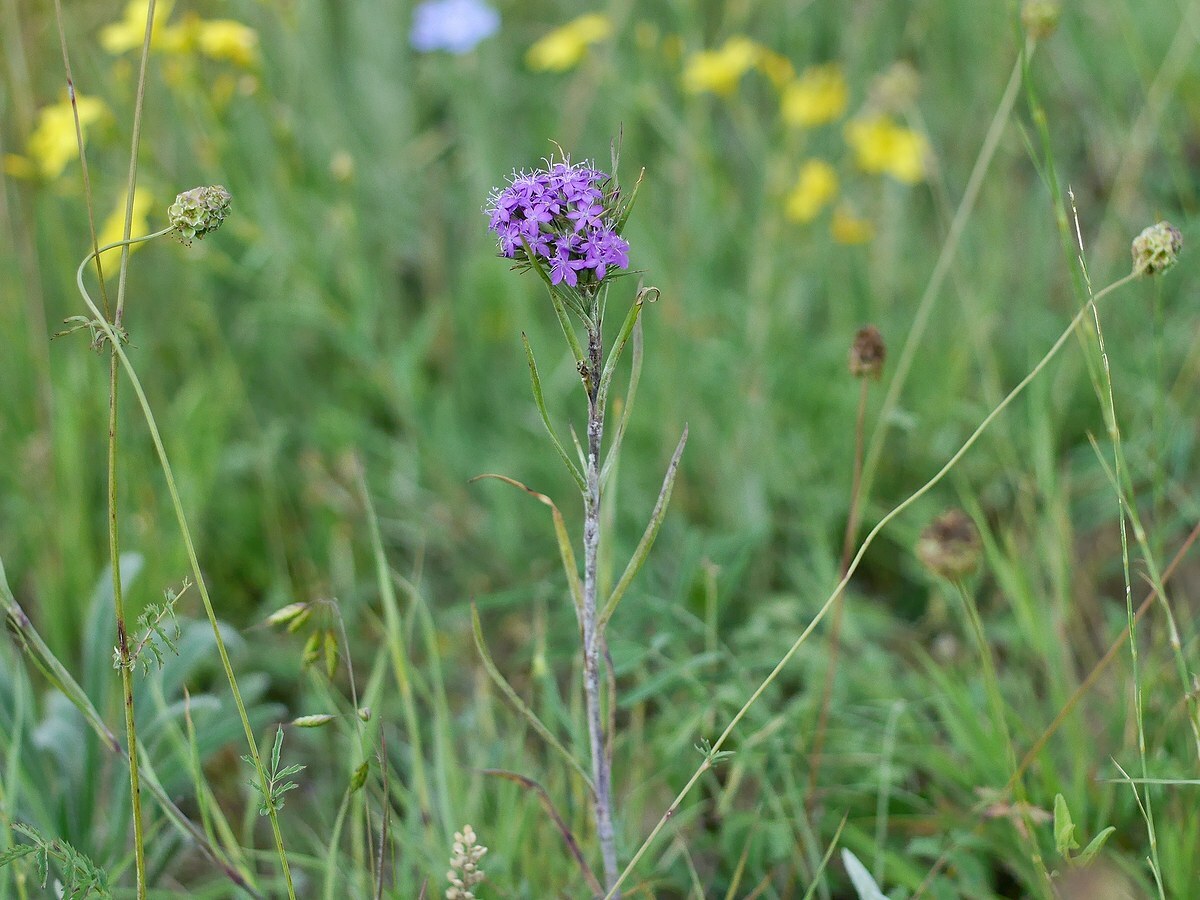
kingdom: Plantae
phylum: Tracheophyta
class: Magnoliopsida
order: Caryophyllales
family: Caryophyllaceae
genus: Dianthus
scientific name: Dianthus pseudarmeria
